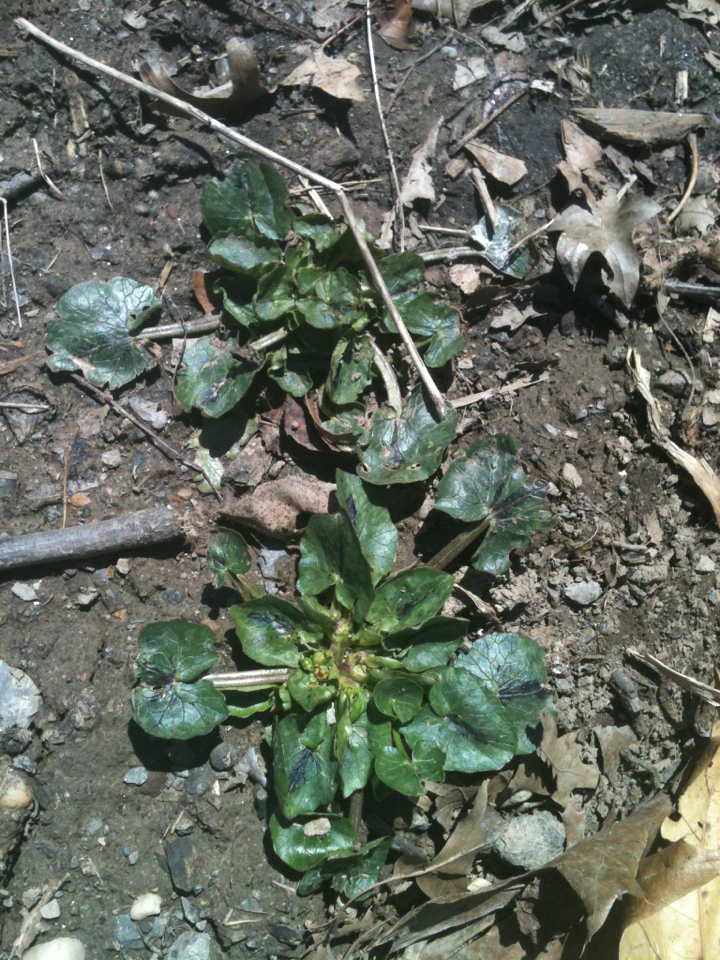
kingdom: Plantae
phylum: Tracheophyta
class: Magnoliopsida
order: Ranunculales
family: Ranunculaceae
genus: Ficaria
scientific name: Ficaria verna
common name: Lesser celandine
